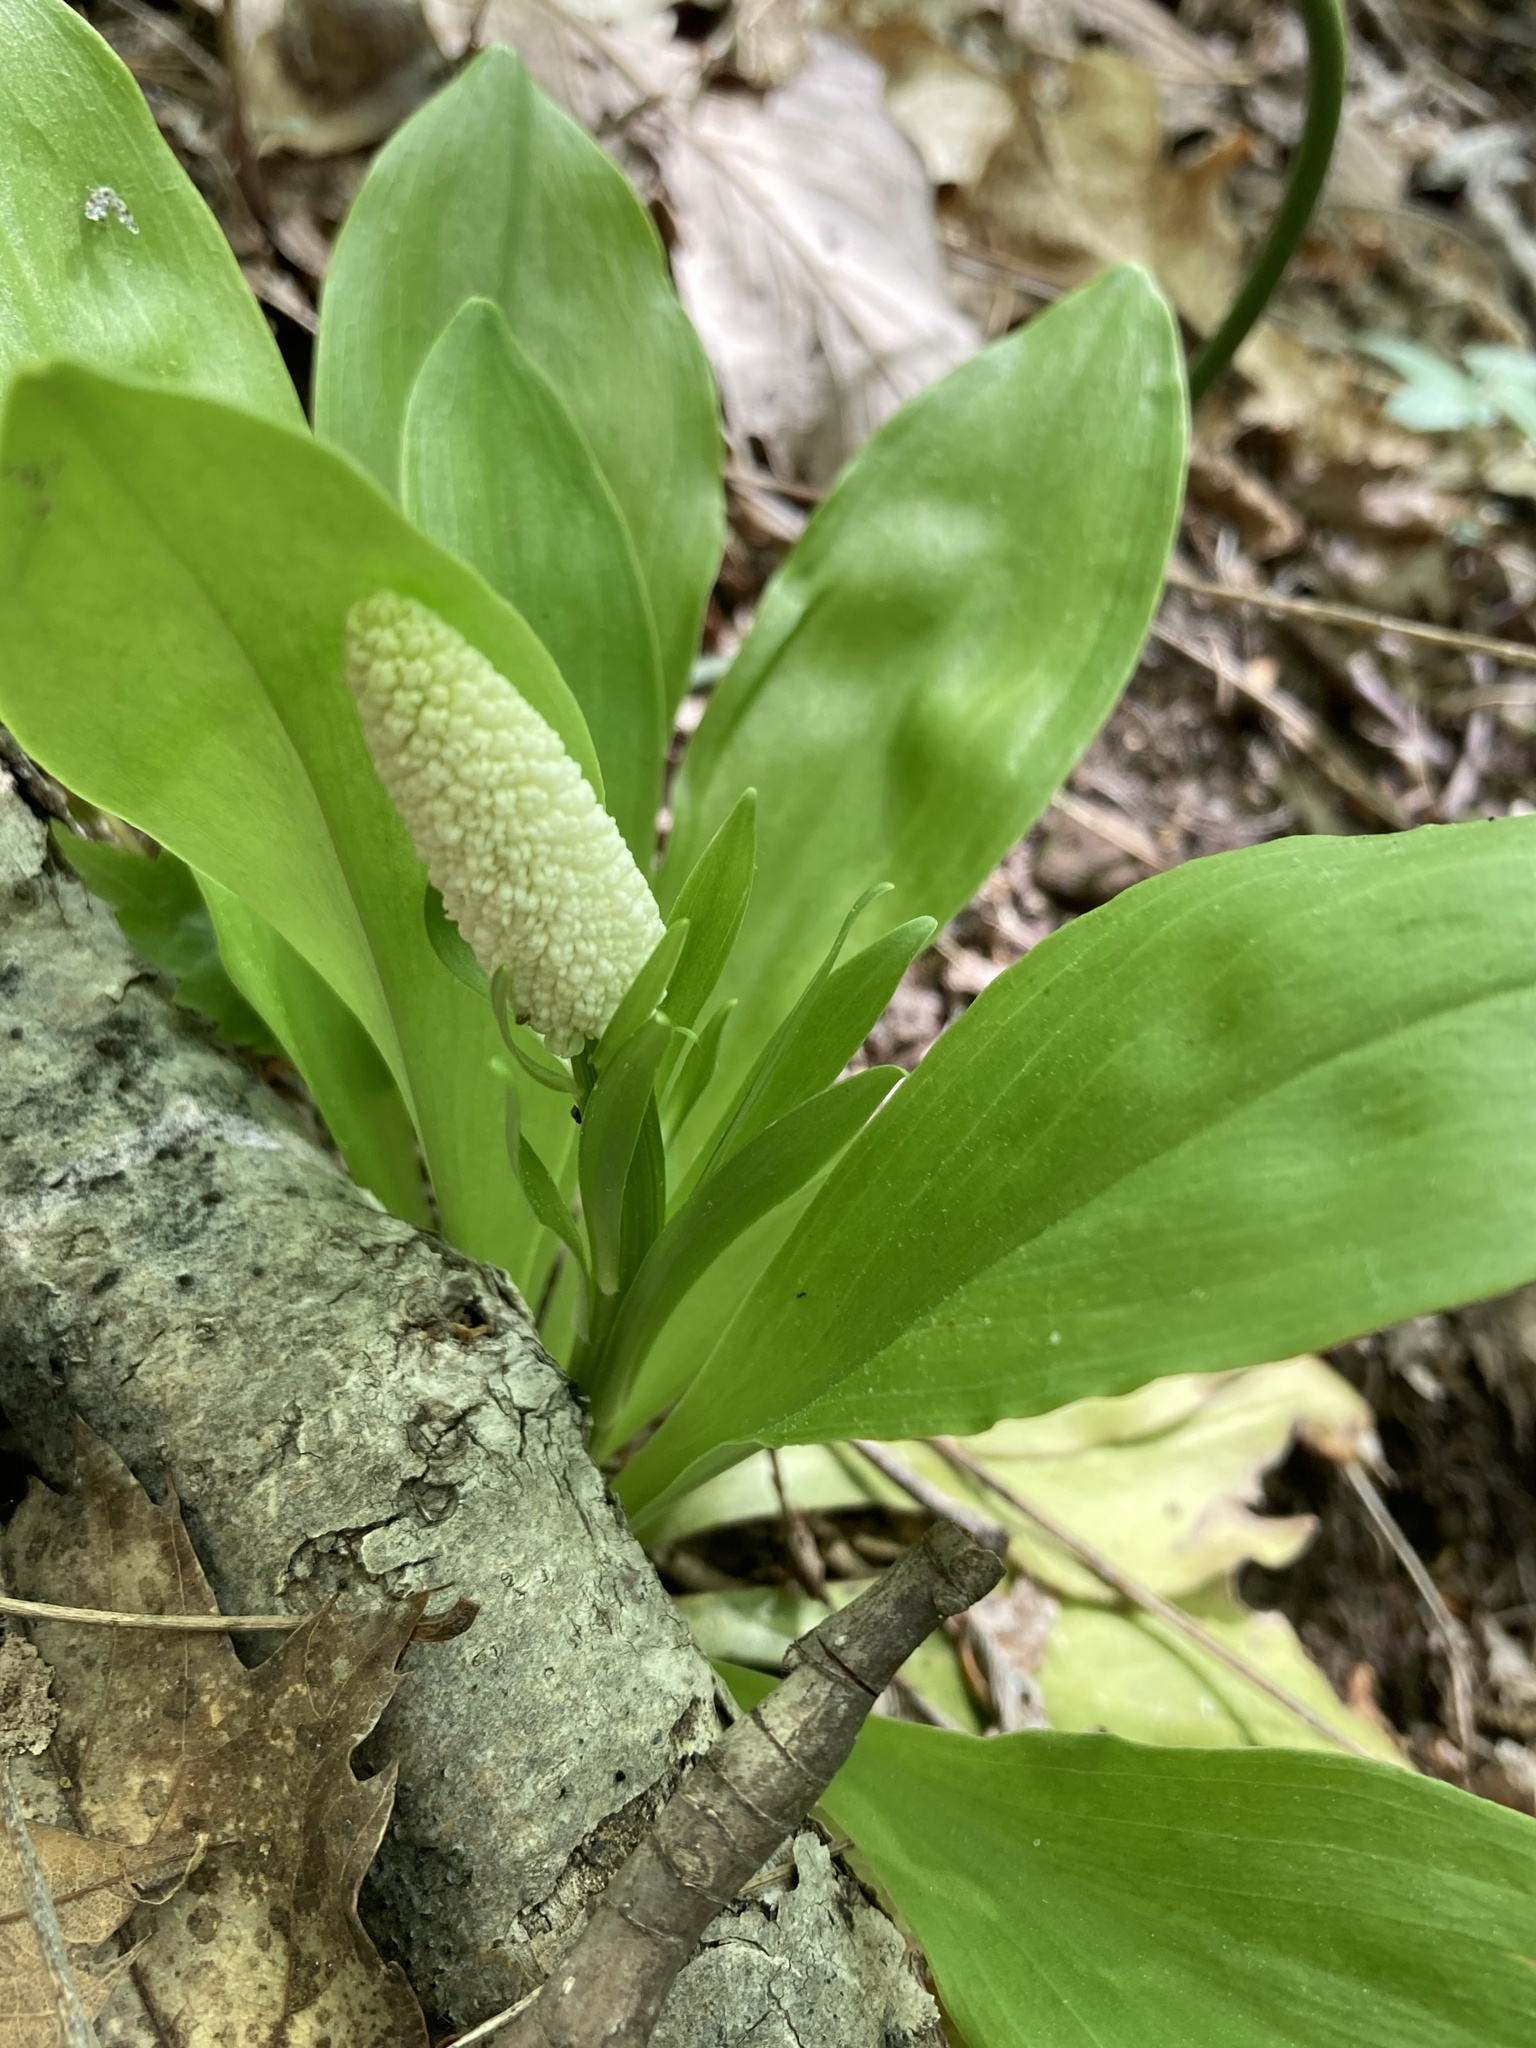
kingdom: Plantae
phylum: Tracheophyta
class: Liliopsida
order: Liliales
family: Melanthiaceae
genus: Chamaelirium
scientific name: Chamaelirium luteum
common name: Fairy-wand
